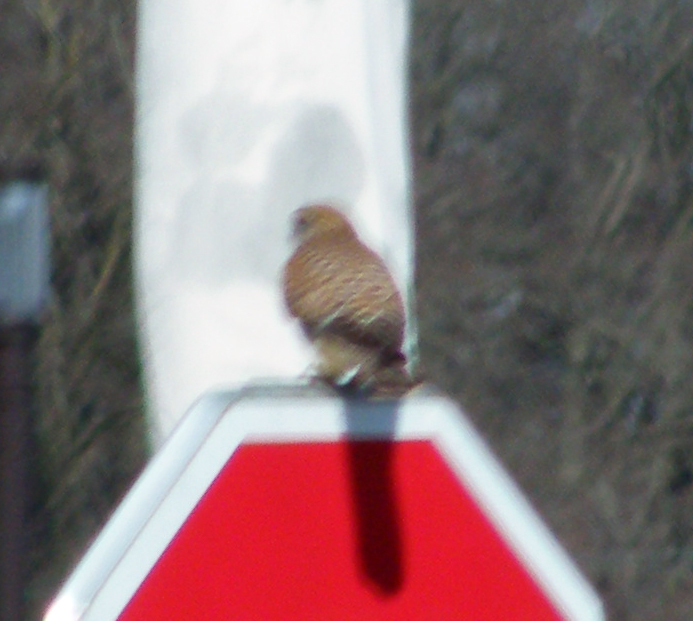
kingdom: Animalia
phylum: Chordata
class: Aves
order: Falconiformes
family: Falconidae
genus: Falco
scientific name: Falco tinnunculus
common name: Common kestrel
